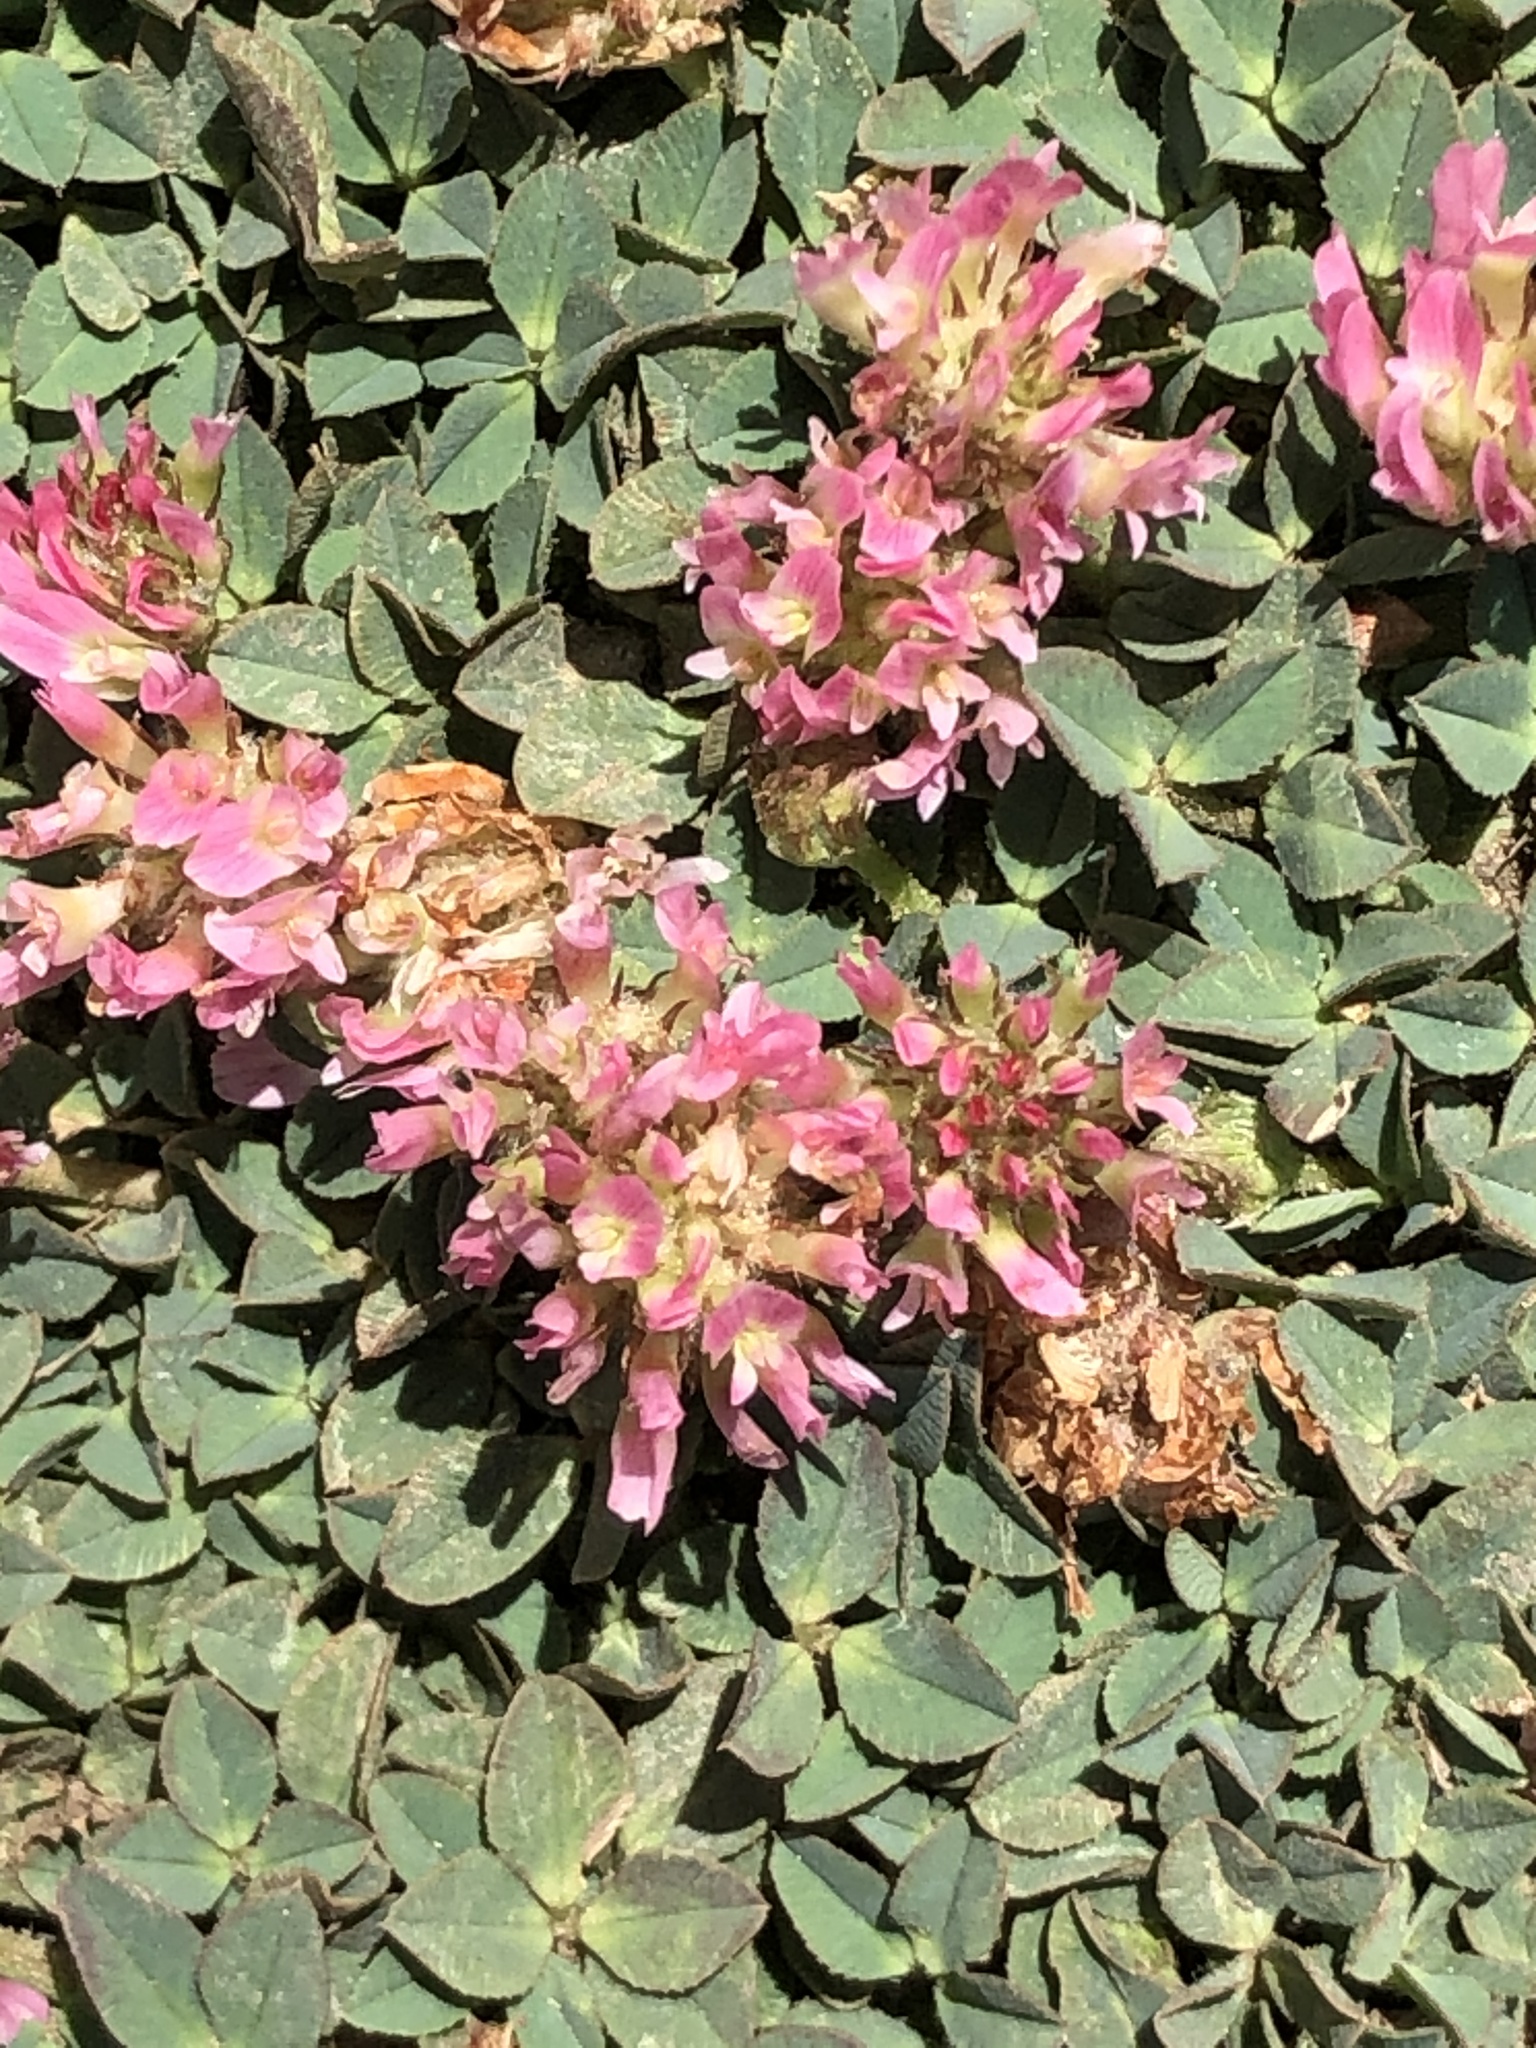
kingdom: Plantae
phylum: Tracheophyta
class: Magnoliopsida
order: Fabales
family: Fabaceae
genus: Trifolium
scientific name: Trifolium fragiferum
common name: Strawberry clover
